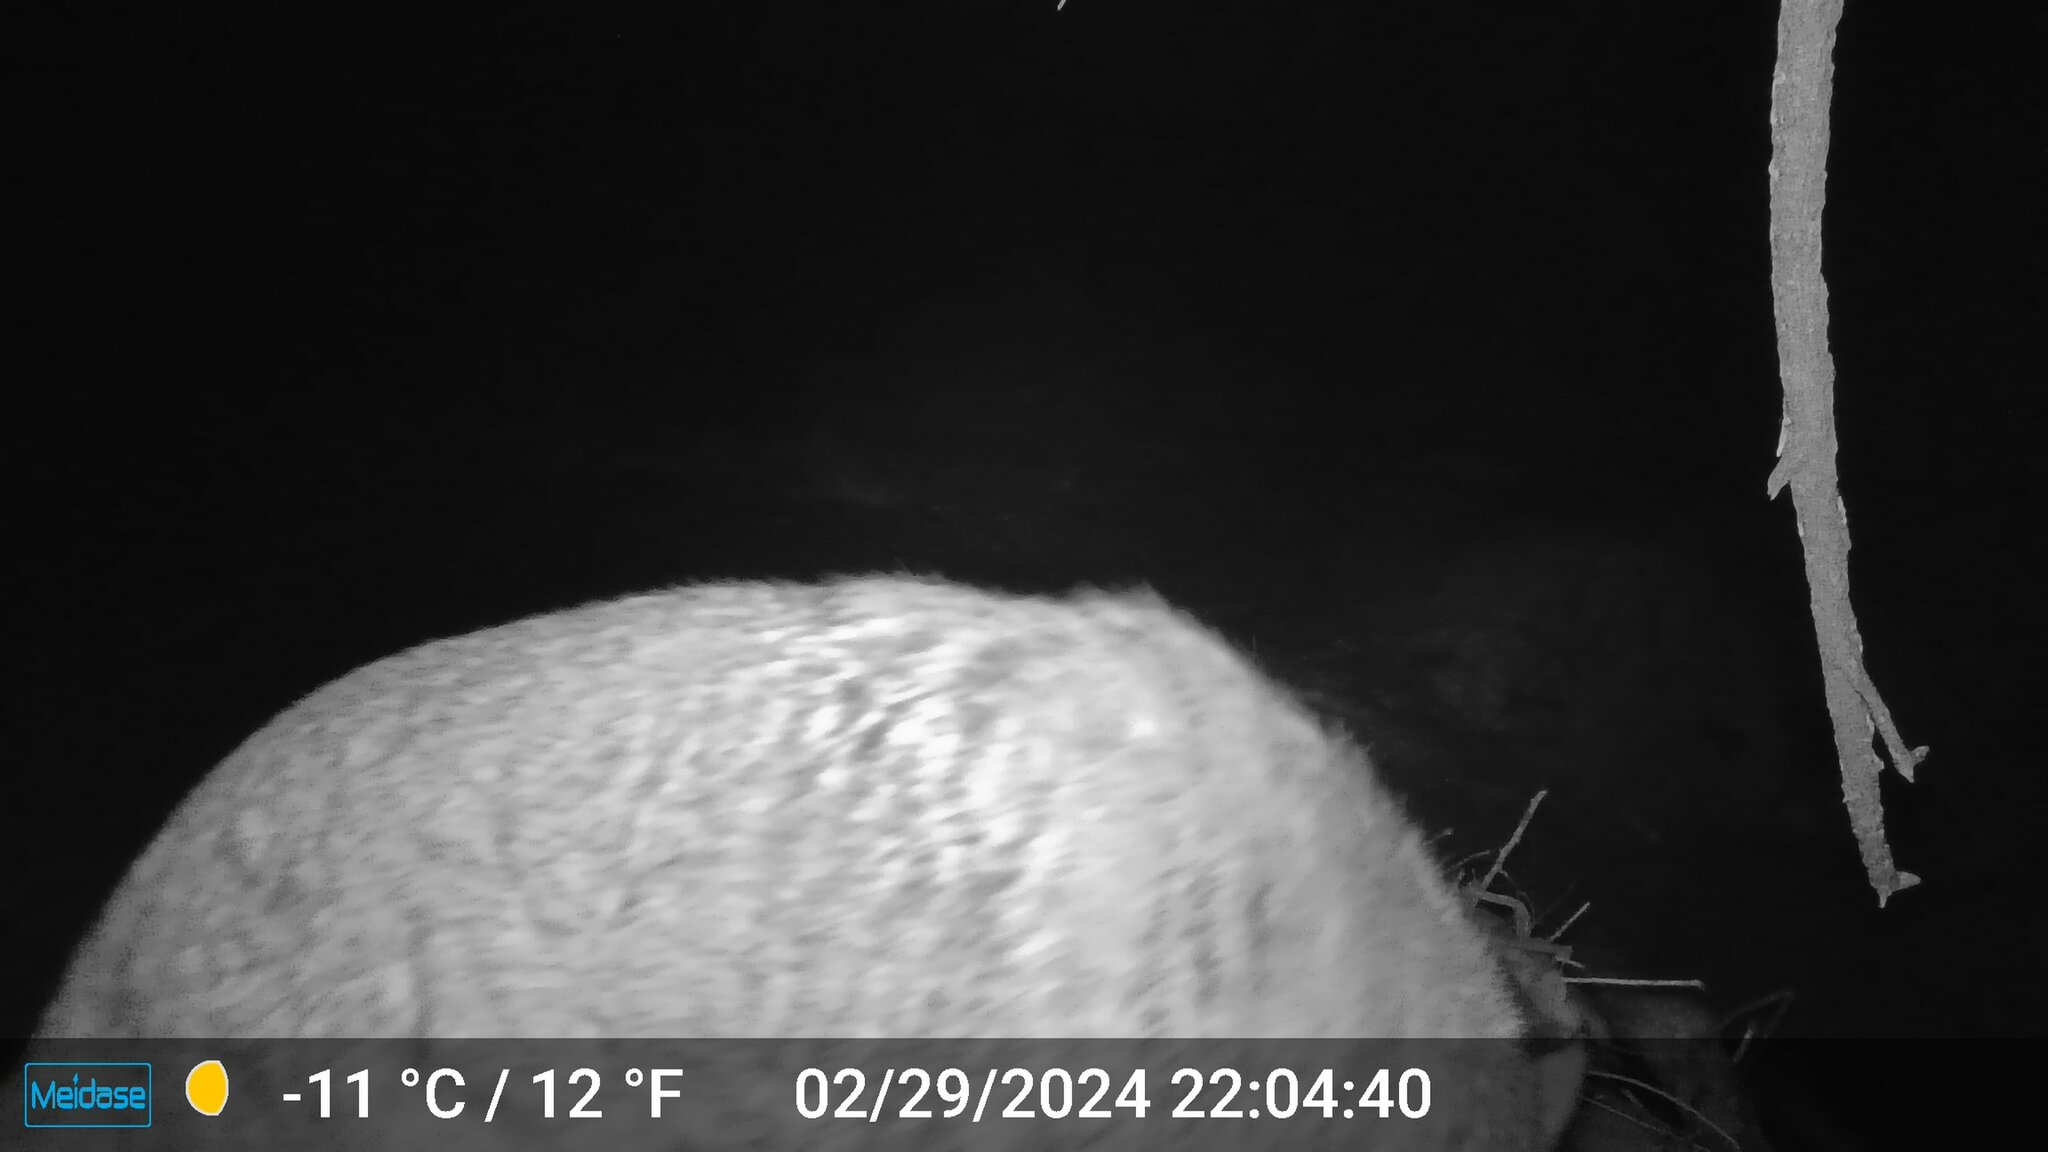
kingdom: Animalia
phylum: Chordata
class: Mammalia
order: Carnivora
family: Canidae
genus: Canis
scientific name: Canis latrans
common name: Coyote
